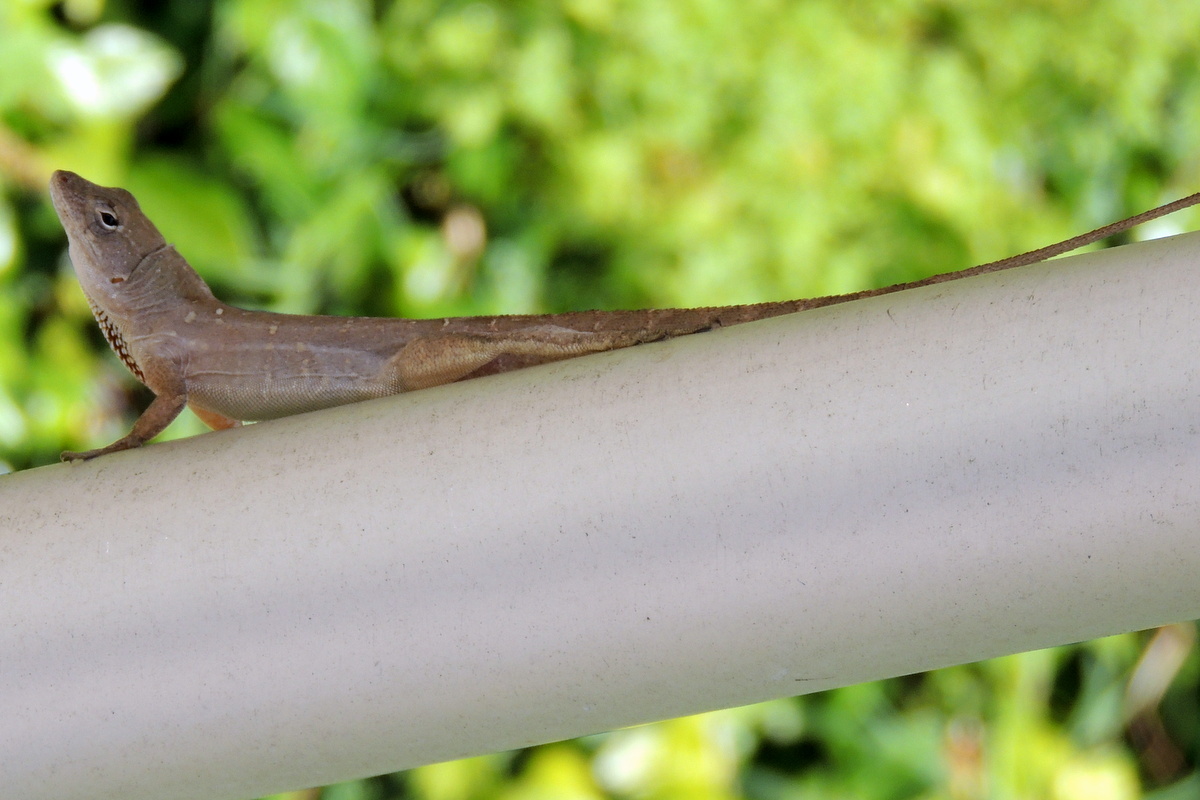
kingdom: Animalia
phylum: Chordata
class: Squamata
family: Dactyloidae
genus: Anolis
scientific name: Anolis sagrei
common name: Brown anole
